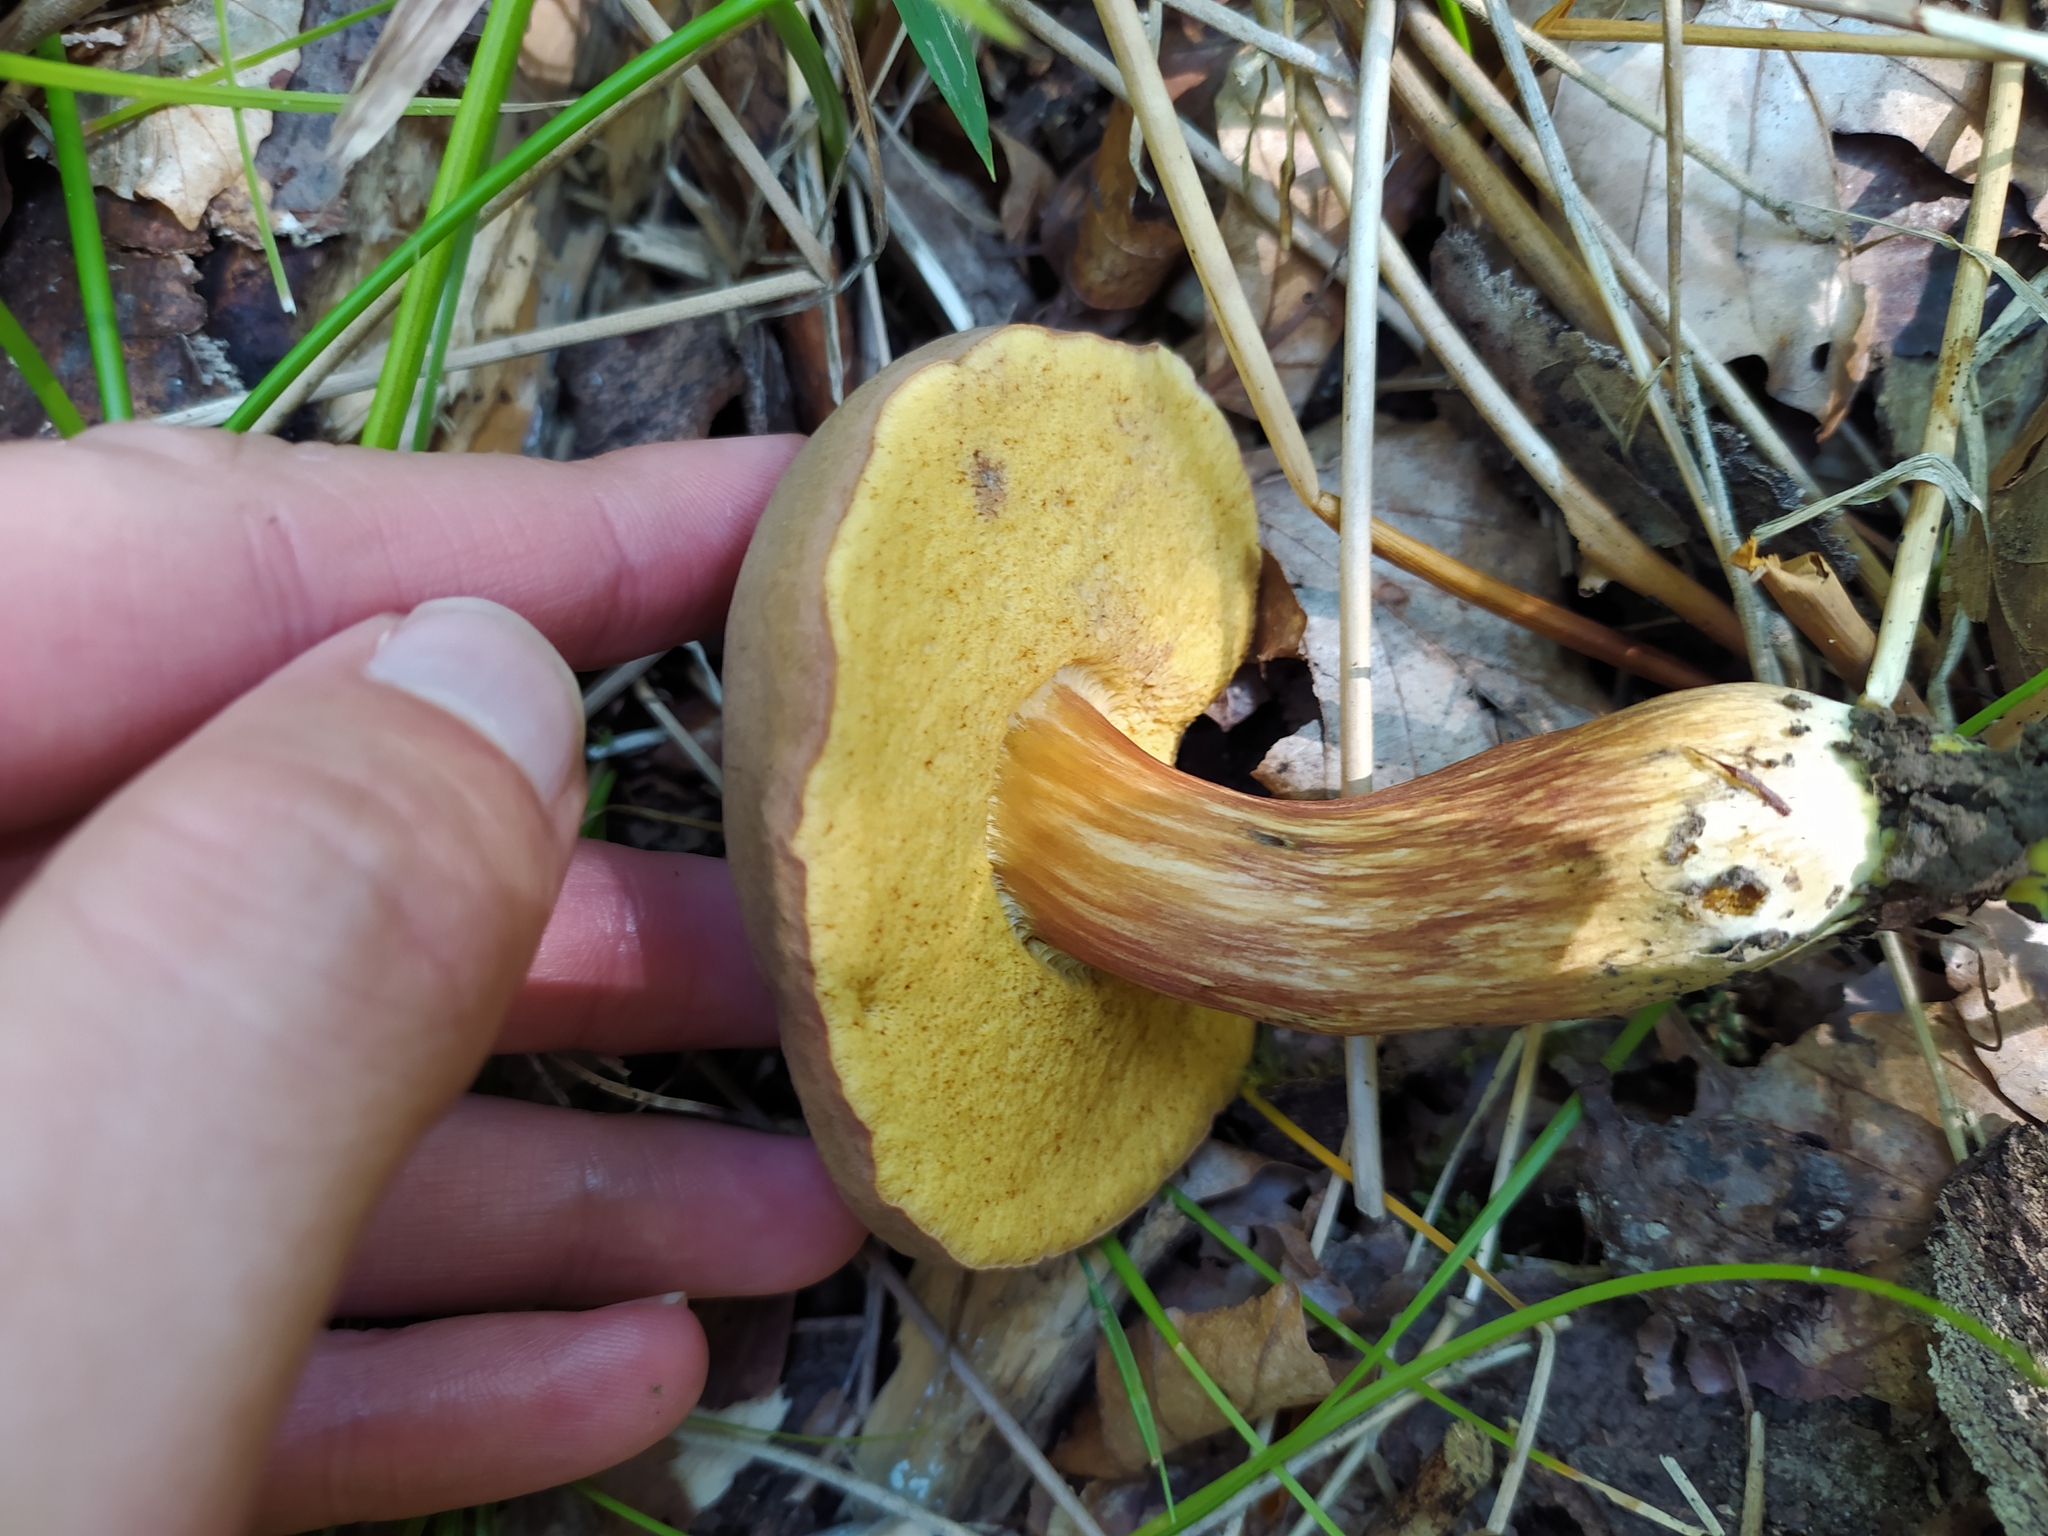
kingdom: Fungi
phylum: Basidiomycota
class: Agaricomycetes
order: Boletales
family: Boletaceae
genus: Xerocomus
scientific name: Xerocomus subtomentosus
